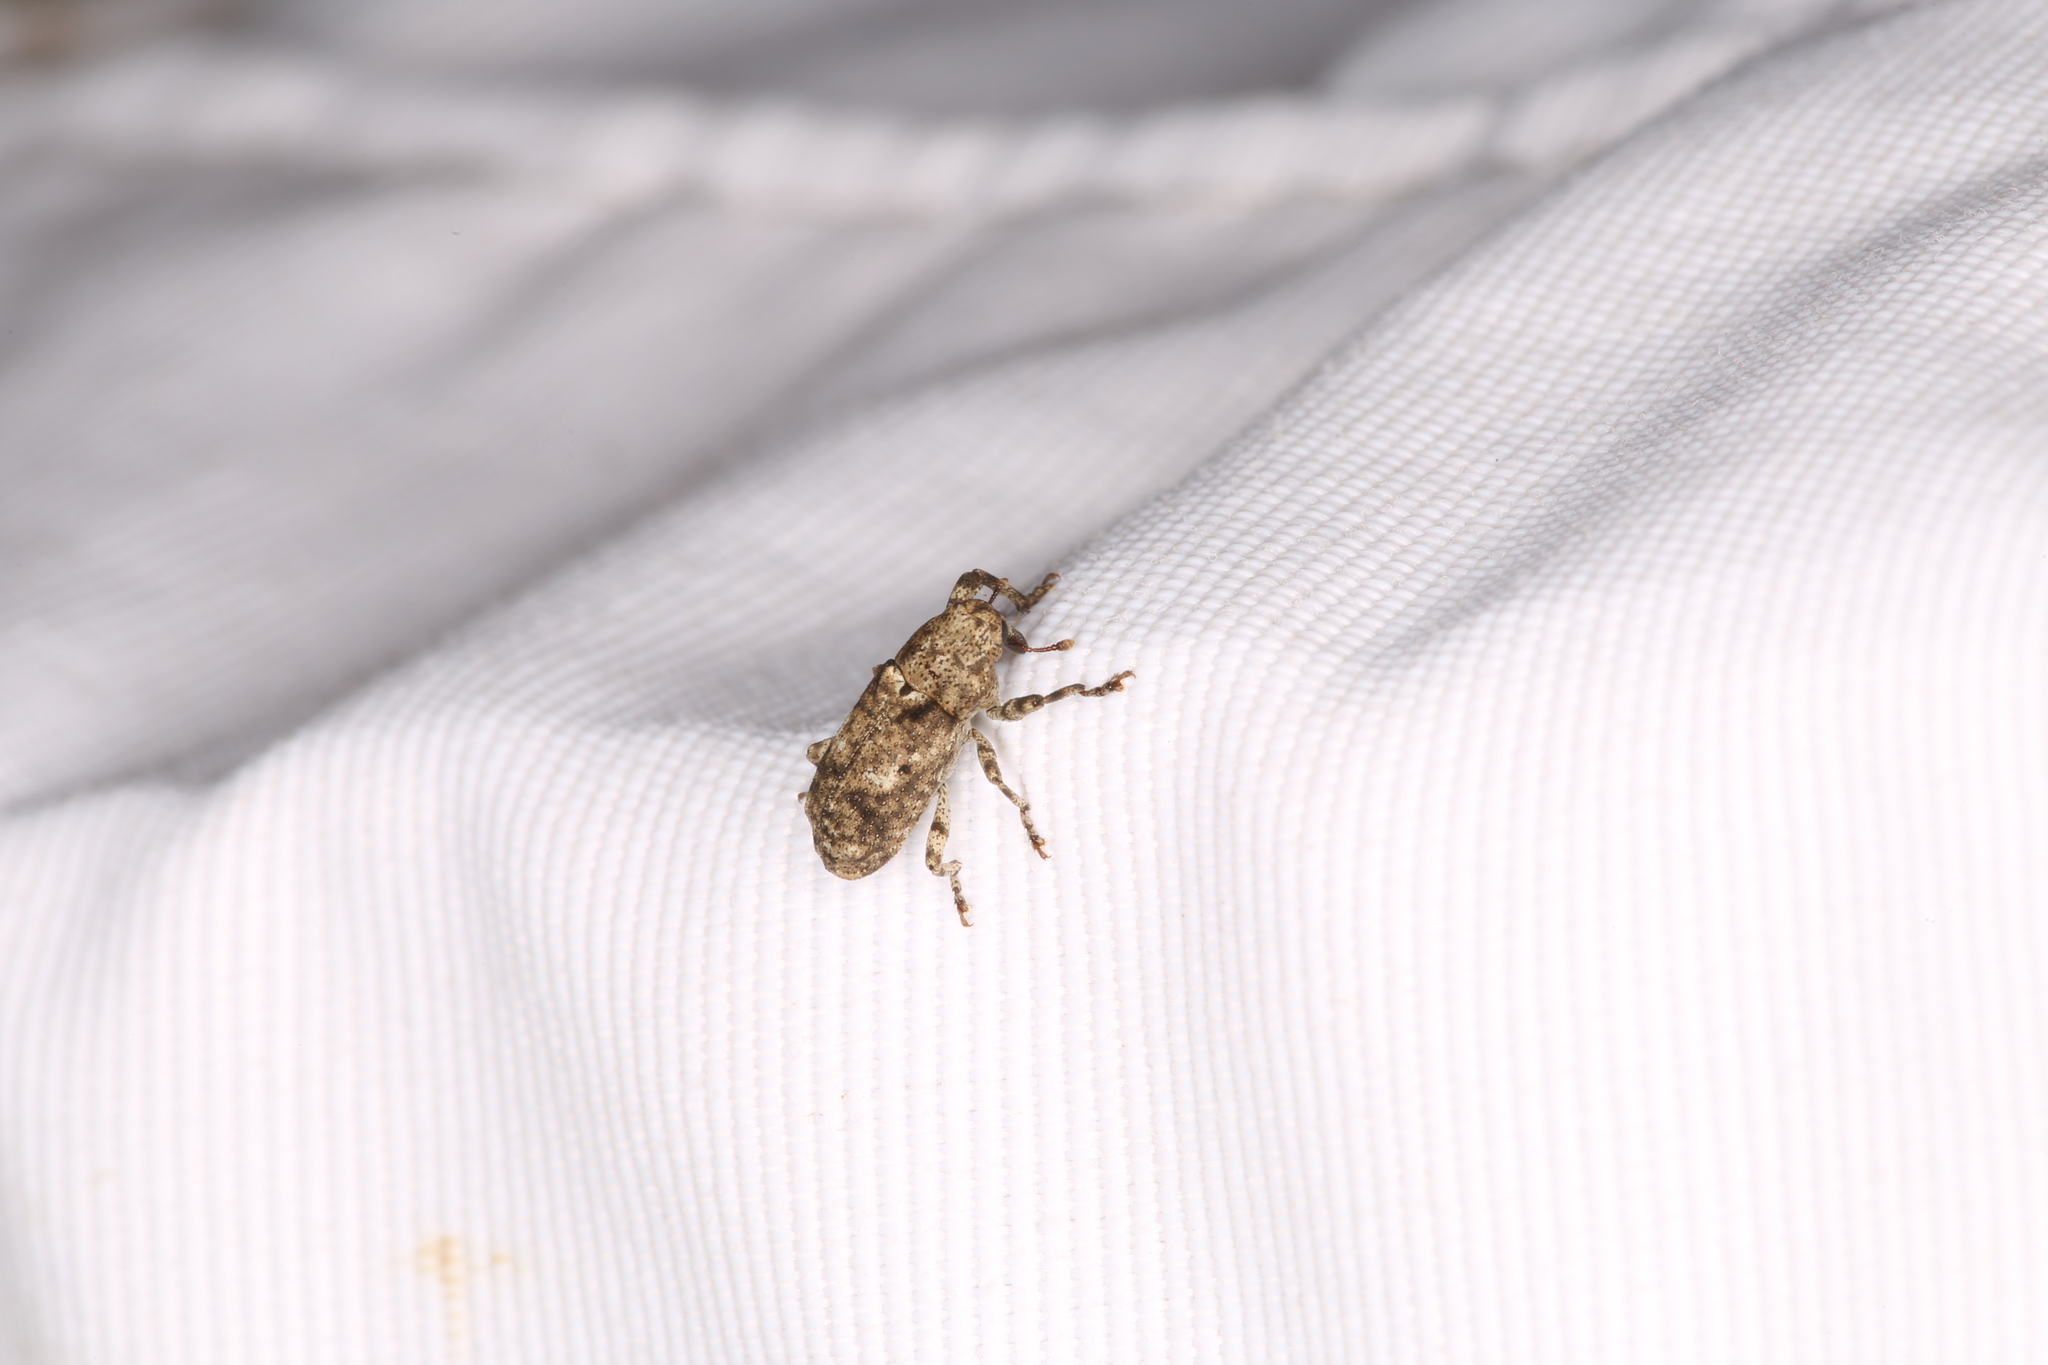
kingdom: Animalia
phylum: Arthropoda
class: Insecta
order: Coleoptera
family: Curculionidae
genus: Gasterocercus
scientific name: Gasterocercus depressirostris
